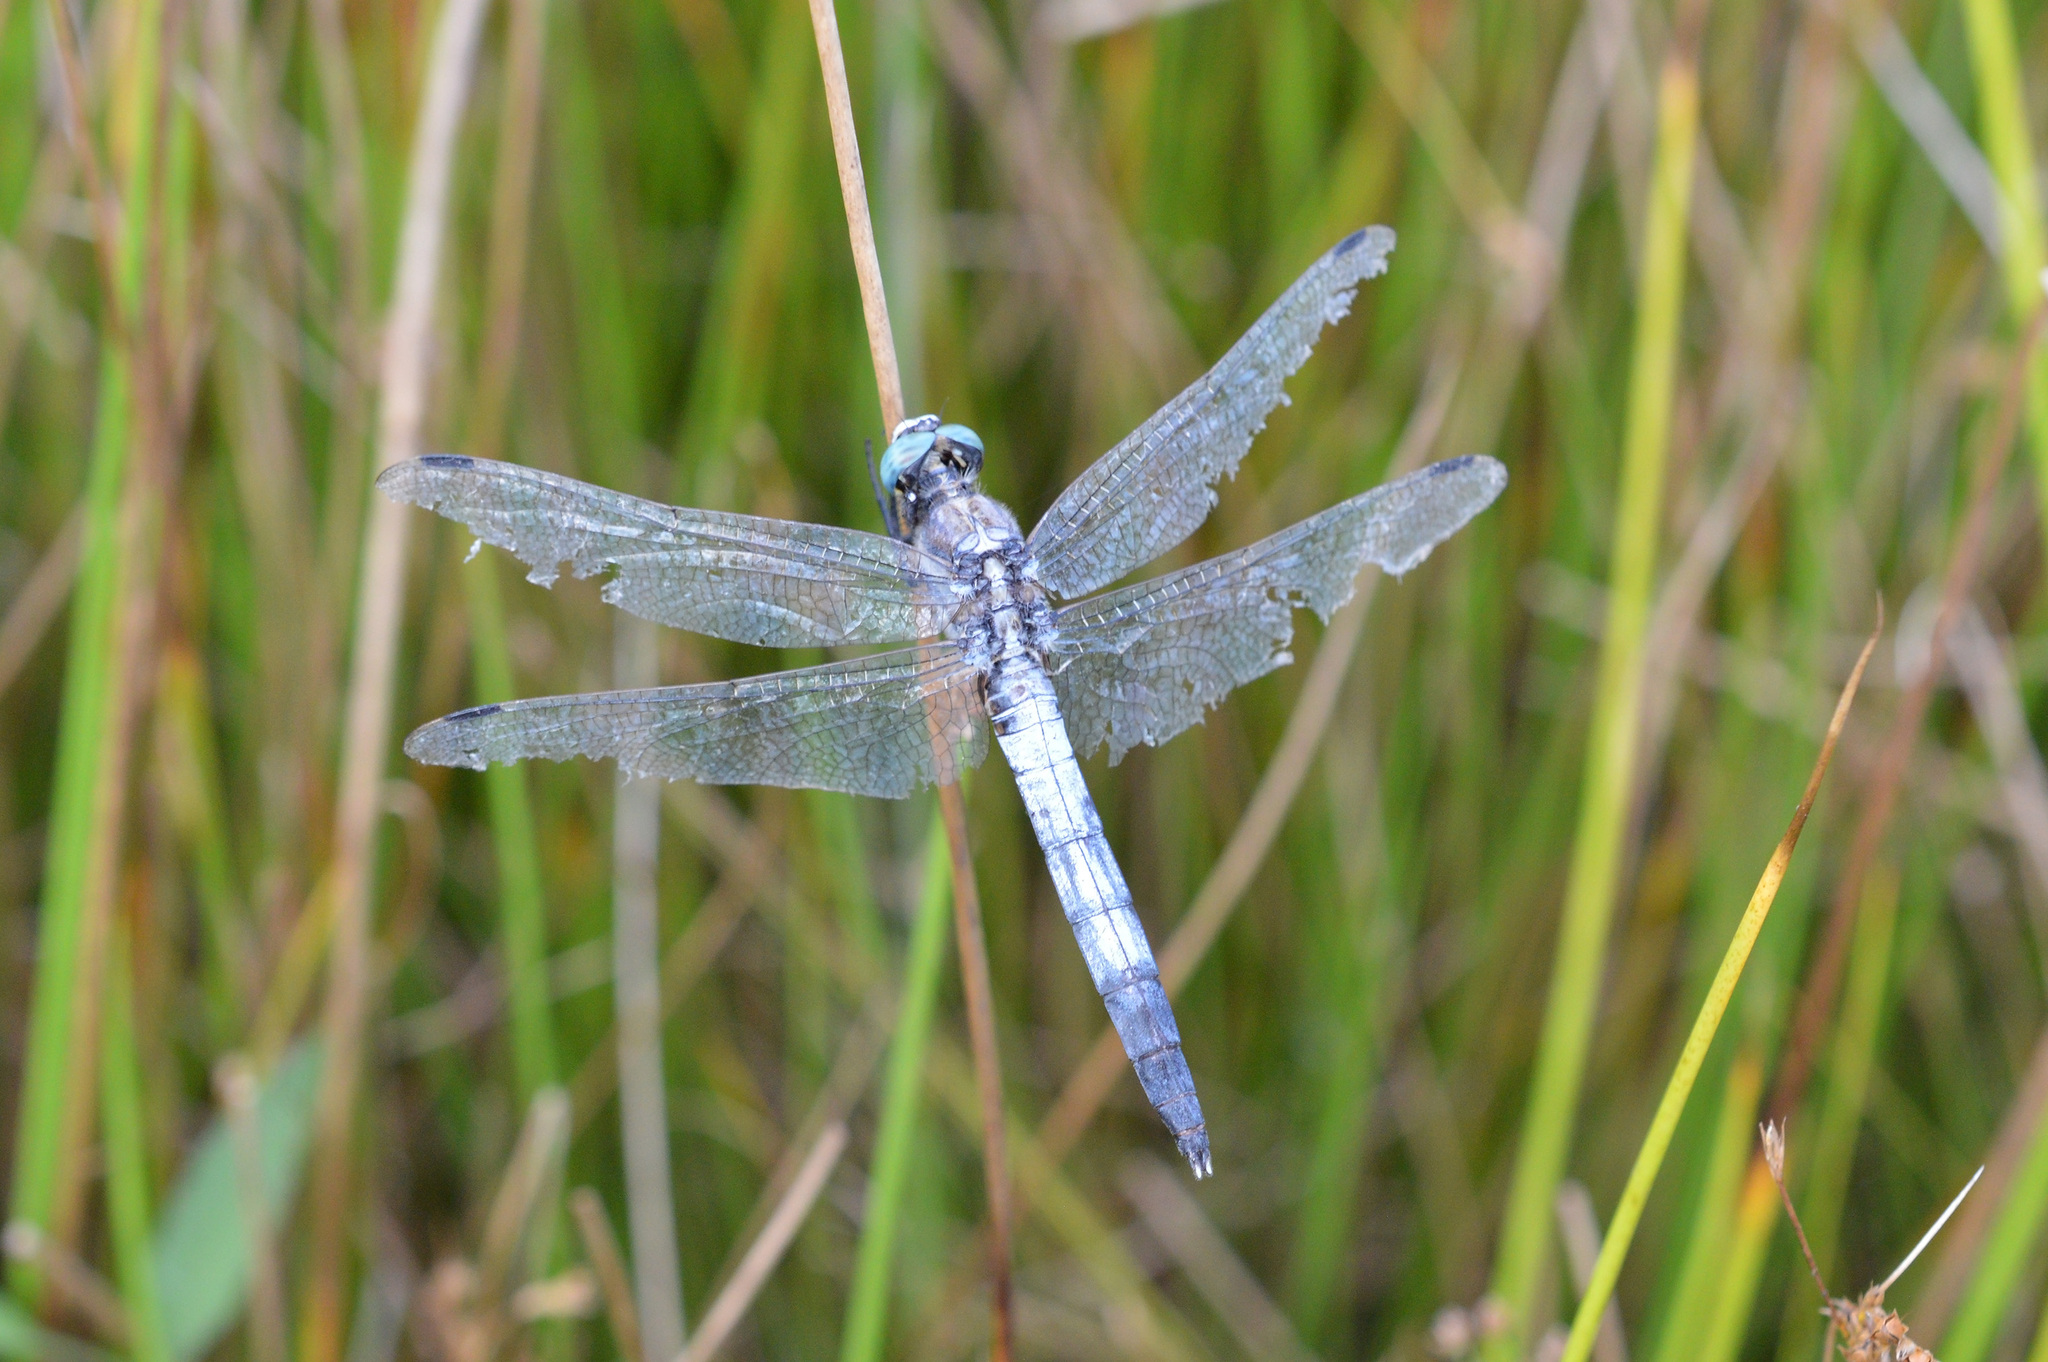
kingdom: Animalia
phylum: Arthropoda
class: Insecta
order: Odonata
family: Libellulidae
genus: Orthetrum
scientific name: Orthetrum albistylum
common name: White-tailed skimmer
